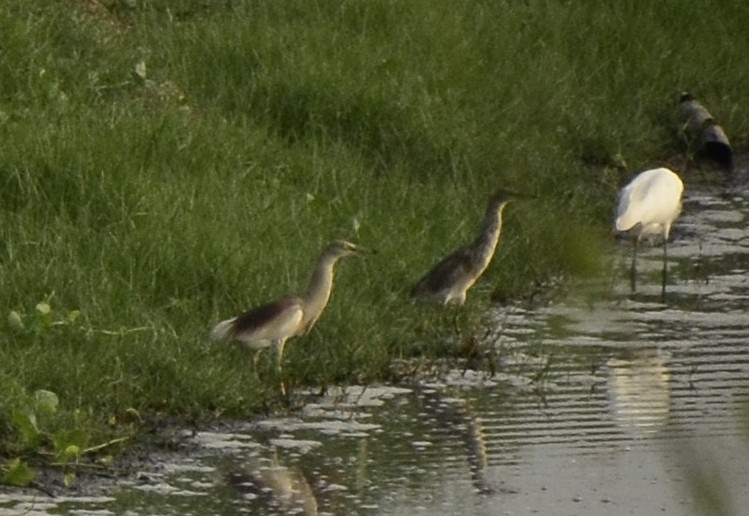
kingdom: Animalia
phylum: Chordata
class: Aves
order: Pelecaniformes
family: Ardeidae
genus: Ardeola
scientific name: Ardeola grayii
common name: Indian pond heron
